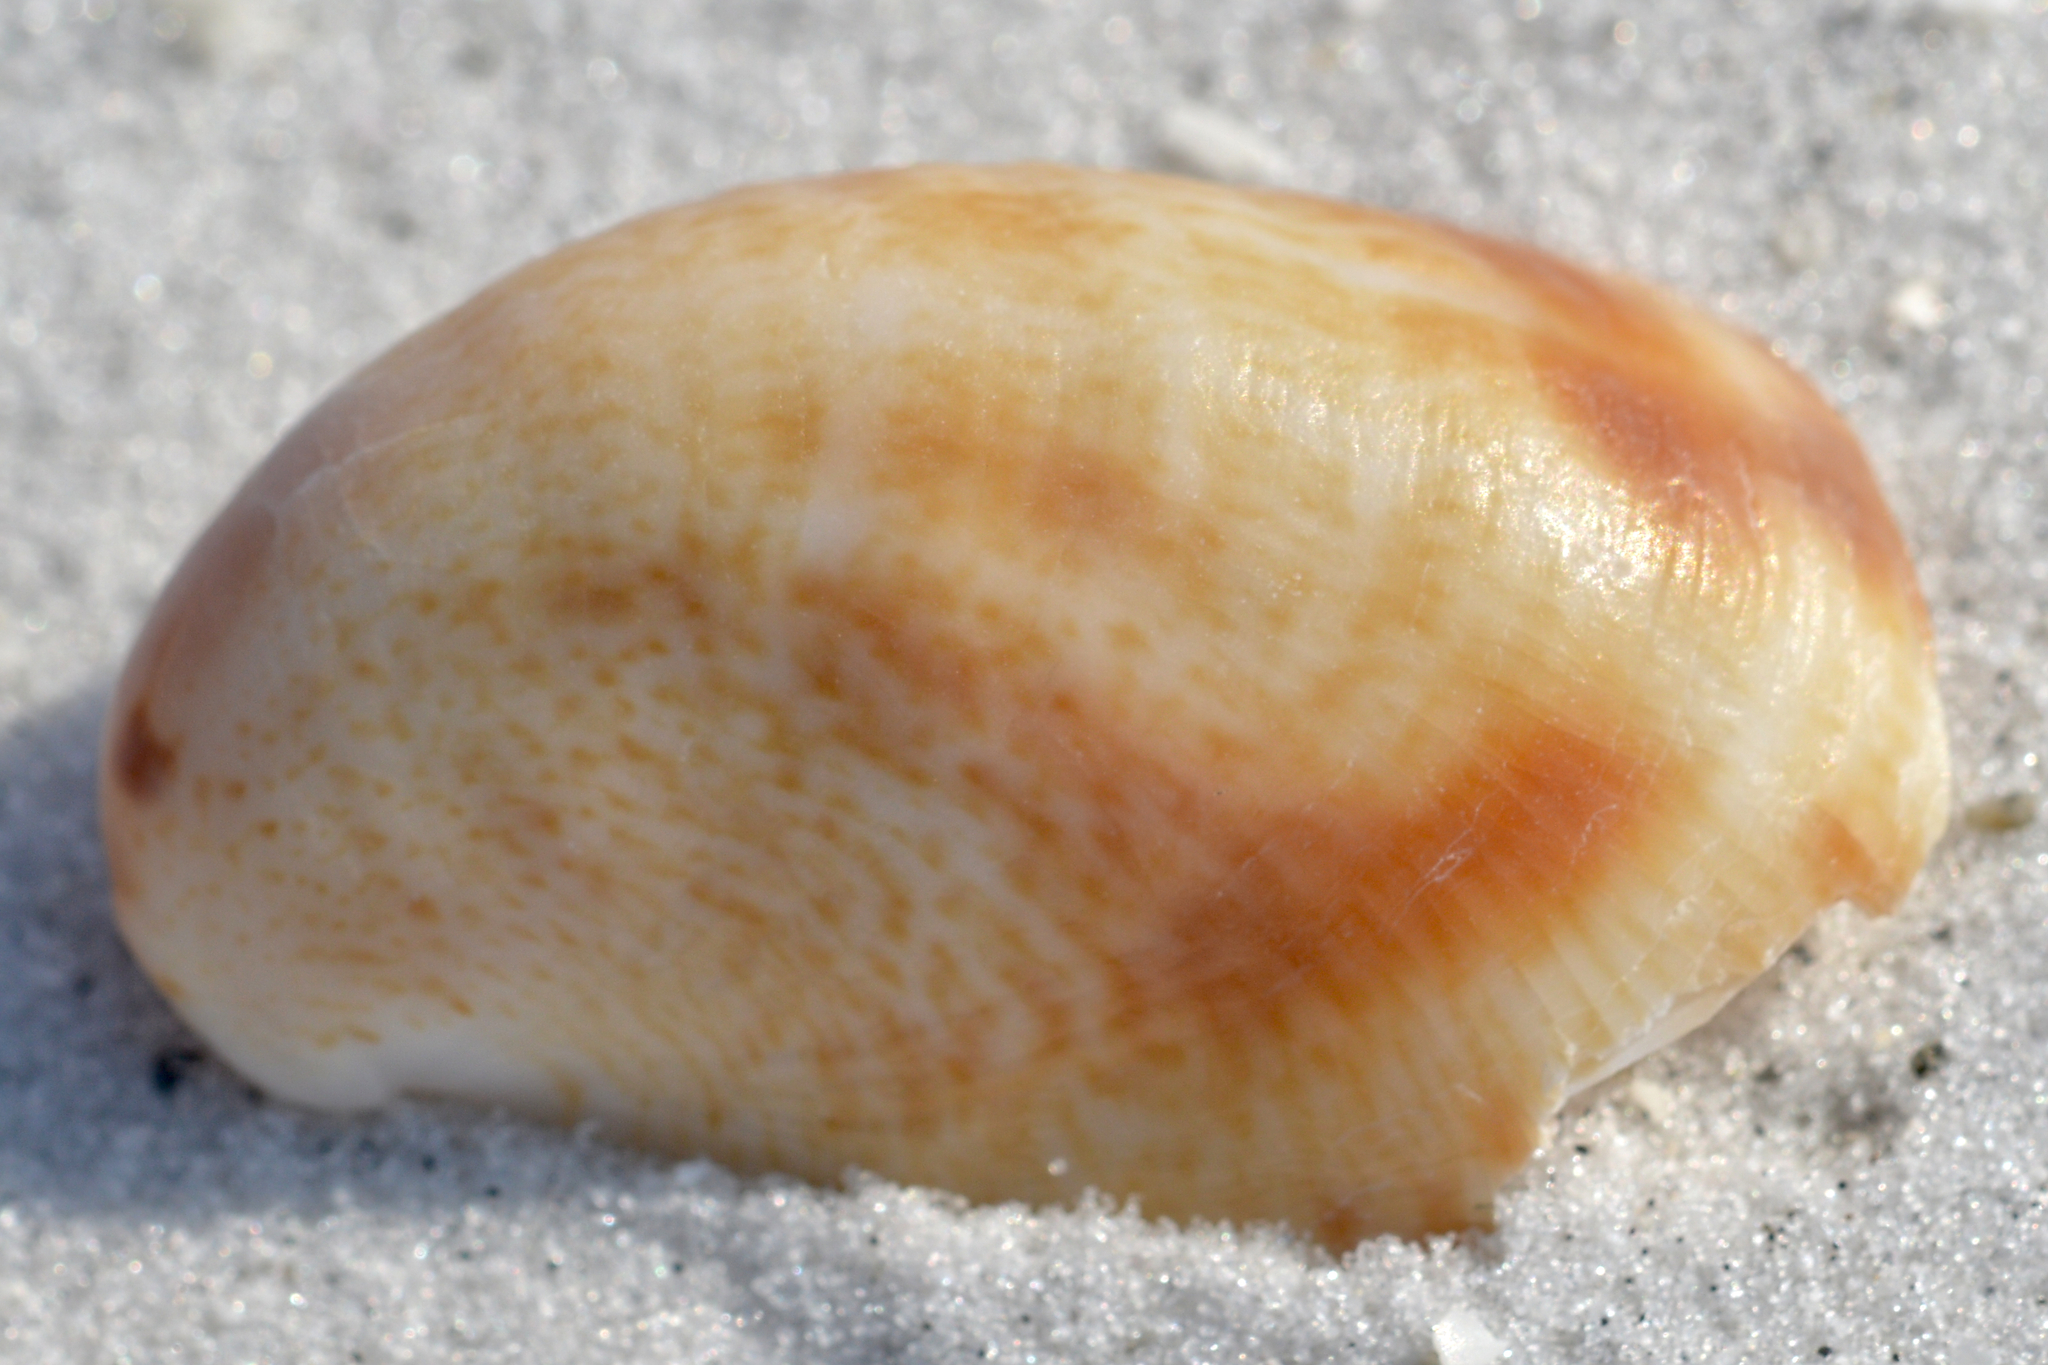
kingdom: Animalia
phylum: Mollusca
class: Gastropoda
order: Littorinimorpha
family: Calyptraeidae
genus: Crepidula
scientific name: Crepidula fornicata
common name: Slipper limpet
